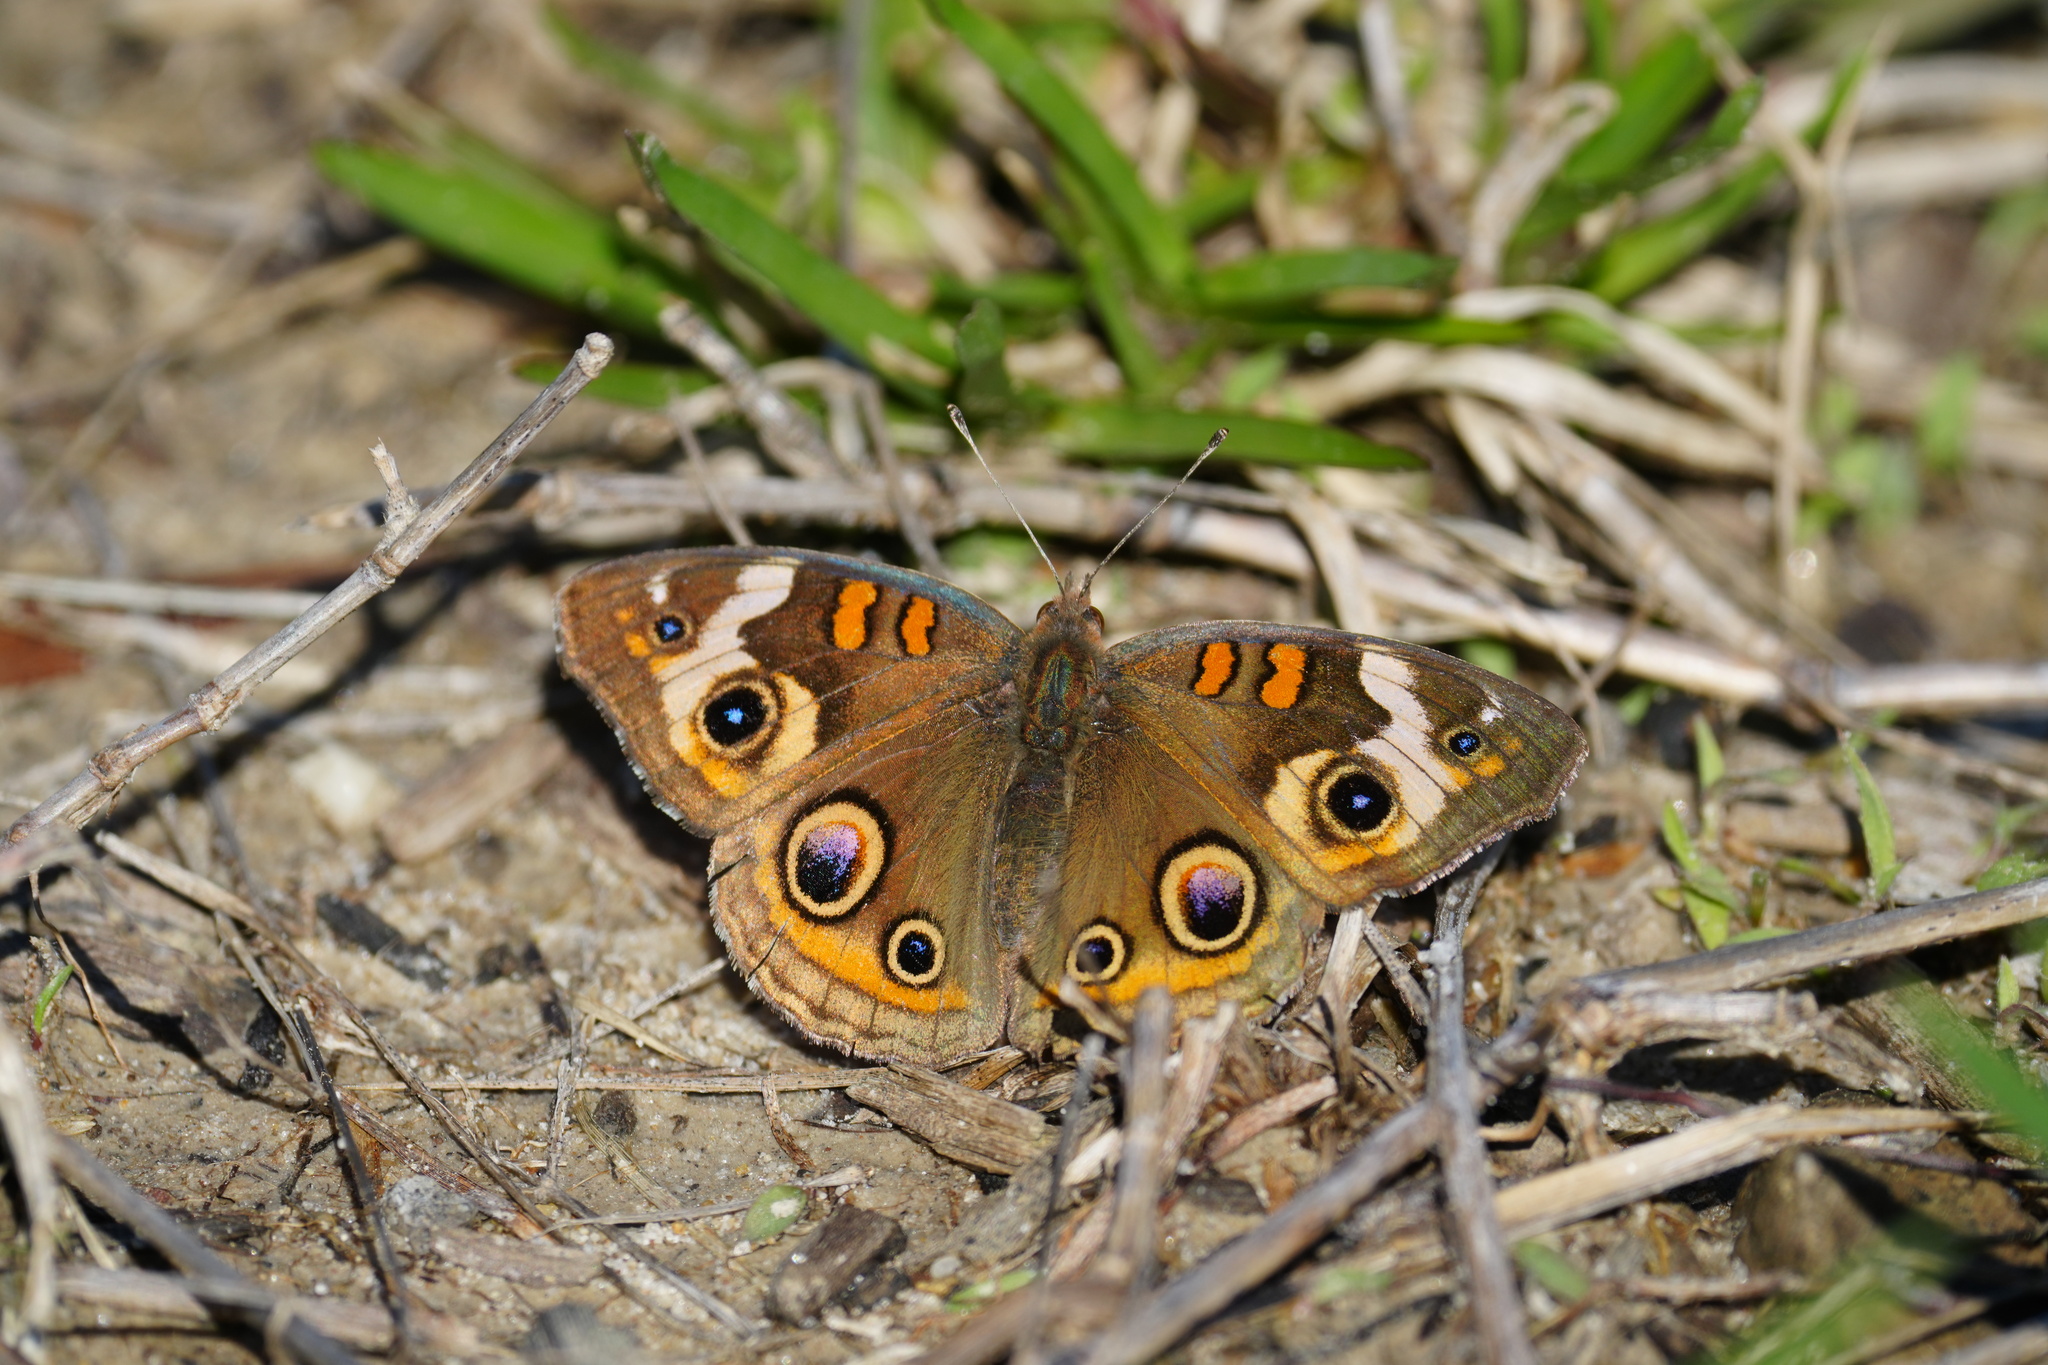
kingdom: Animalia
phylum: Arthropoda
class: Insecta
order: Lepidoptera
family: Nymphalidae
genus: Junonia
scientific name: Junonia coenia
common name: Common buckeye
